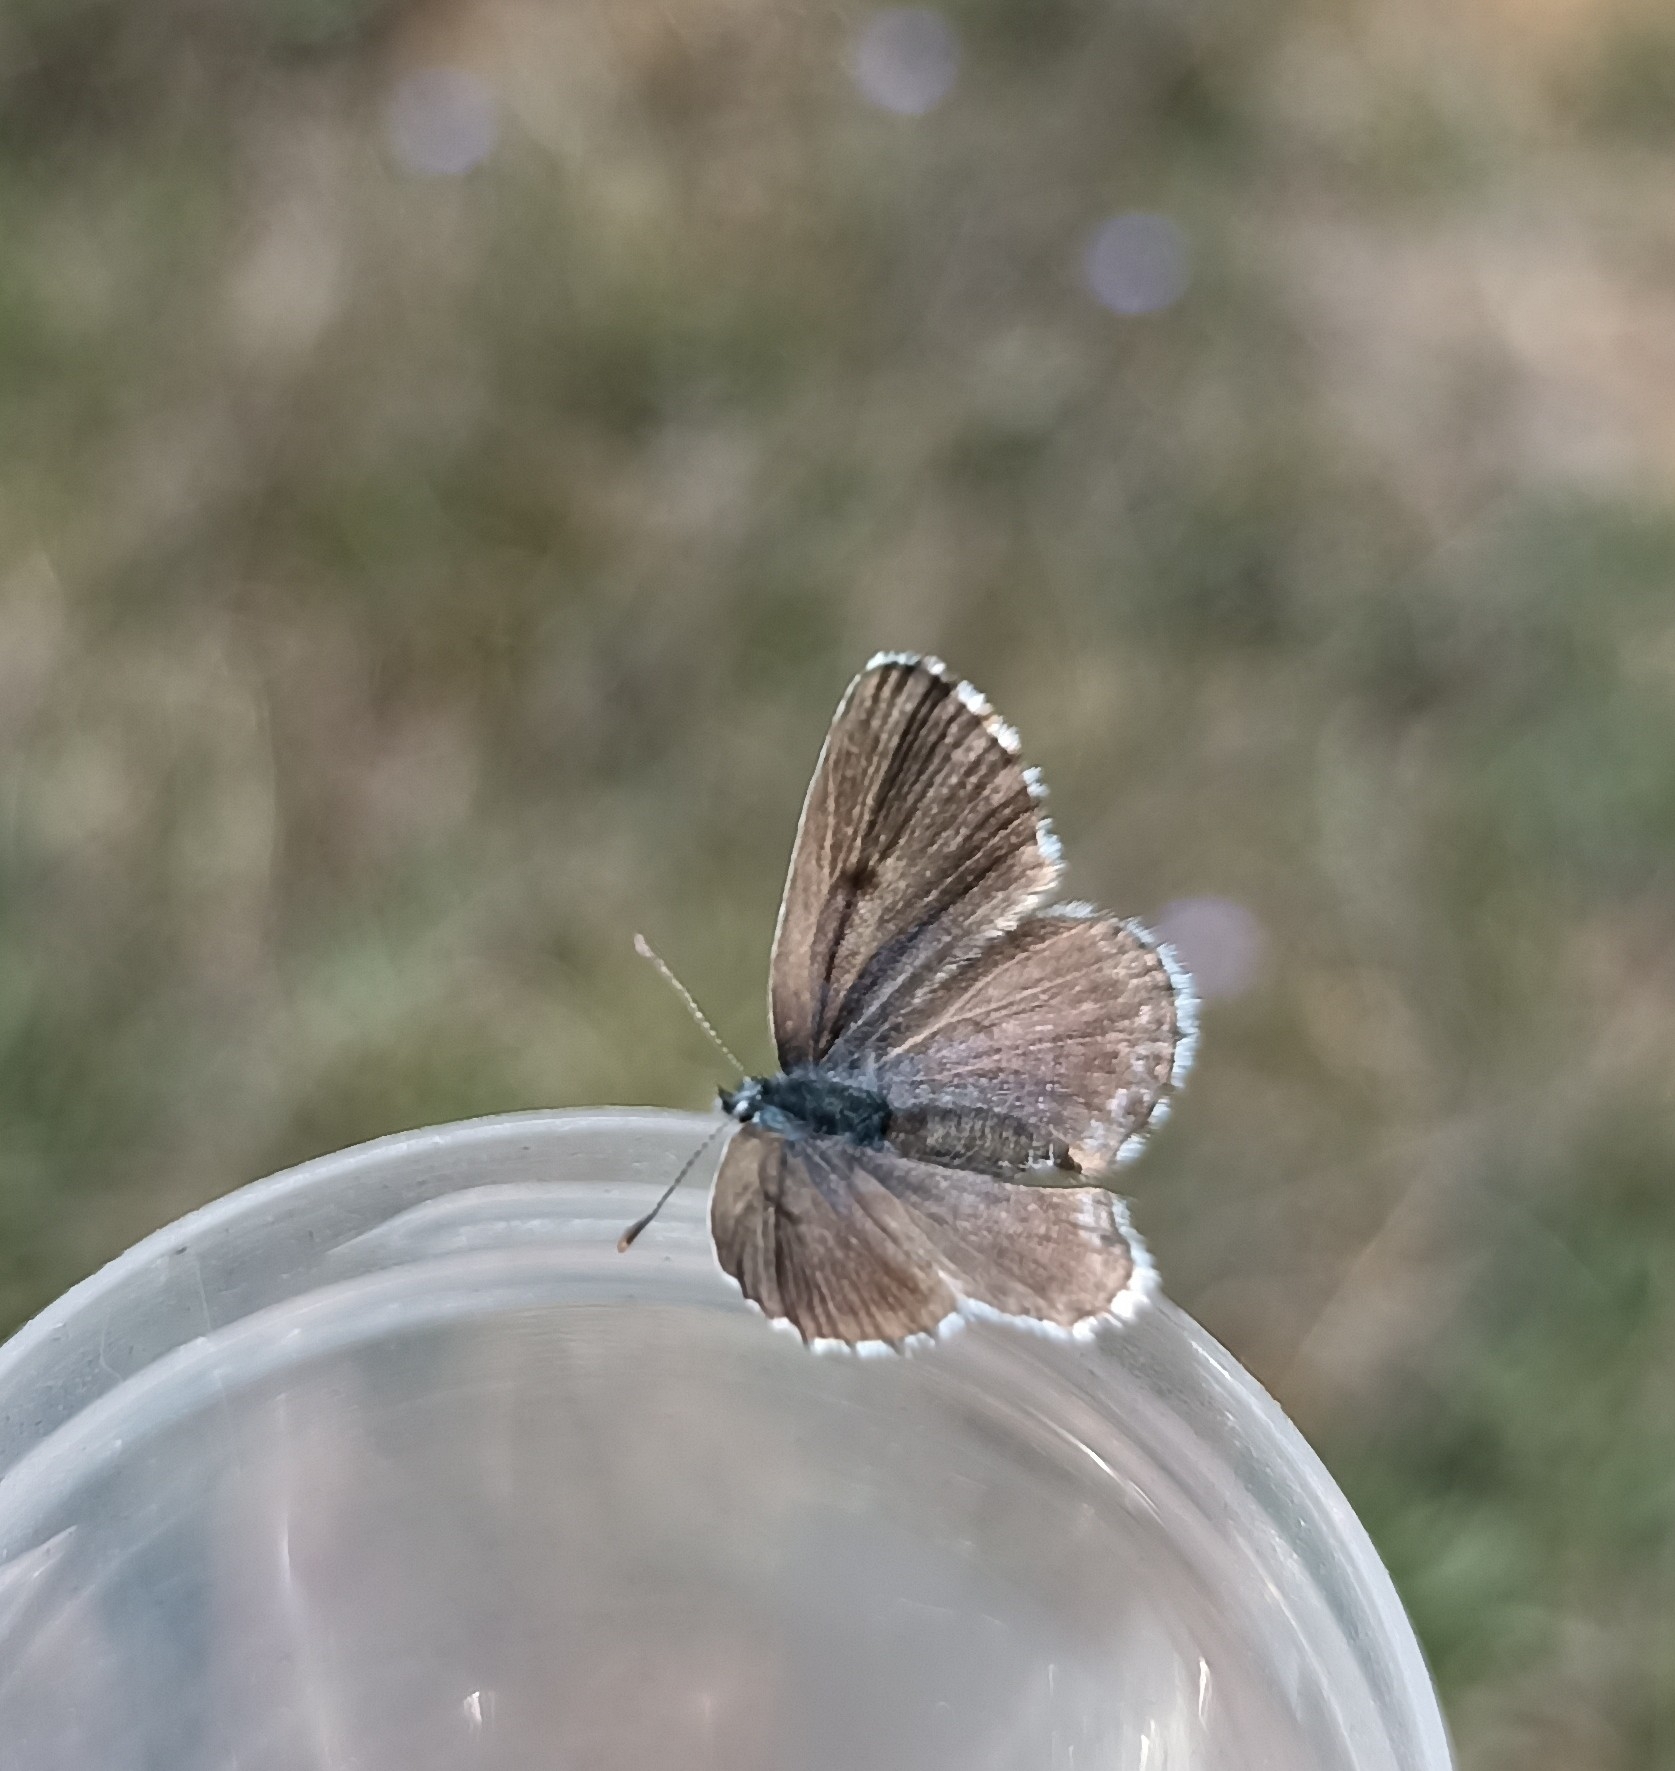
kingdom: Animalia
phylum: Arthropoda
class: Insecta
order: Lepidoptera
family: Lycaenidae
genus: Pseudophilotes
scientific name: Pseudophilotes baton
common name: Baton blue
